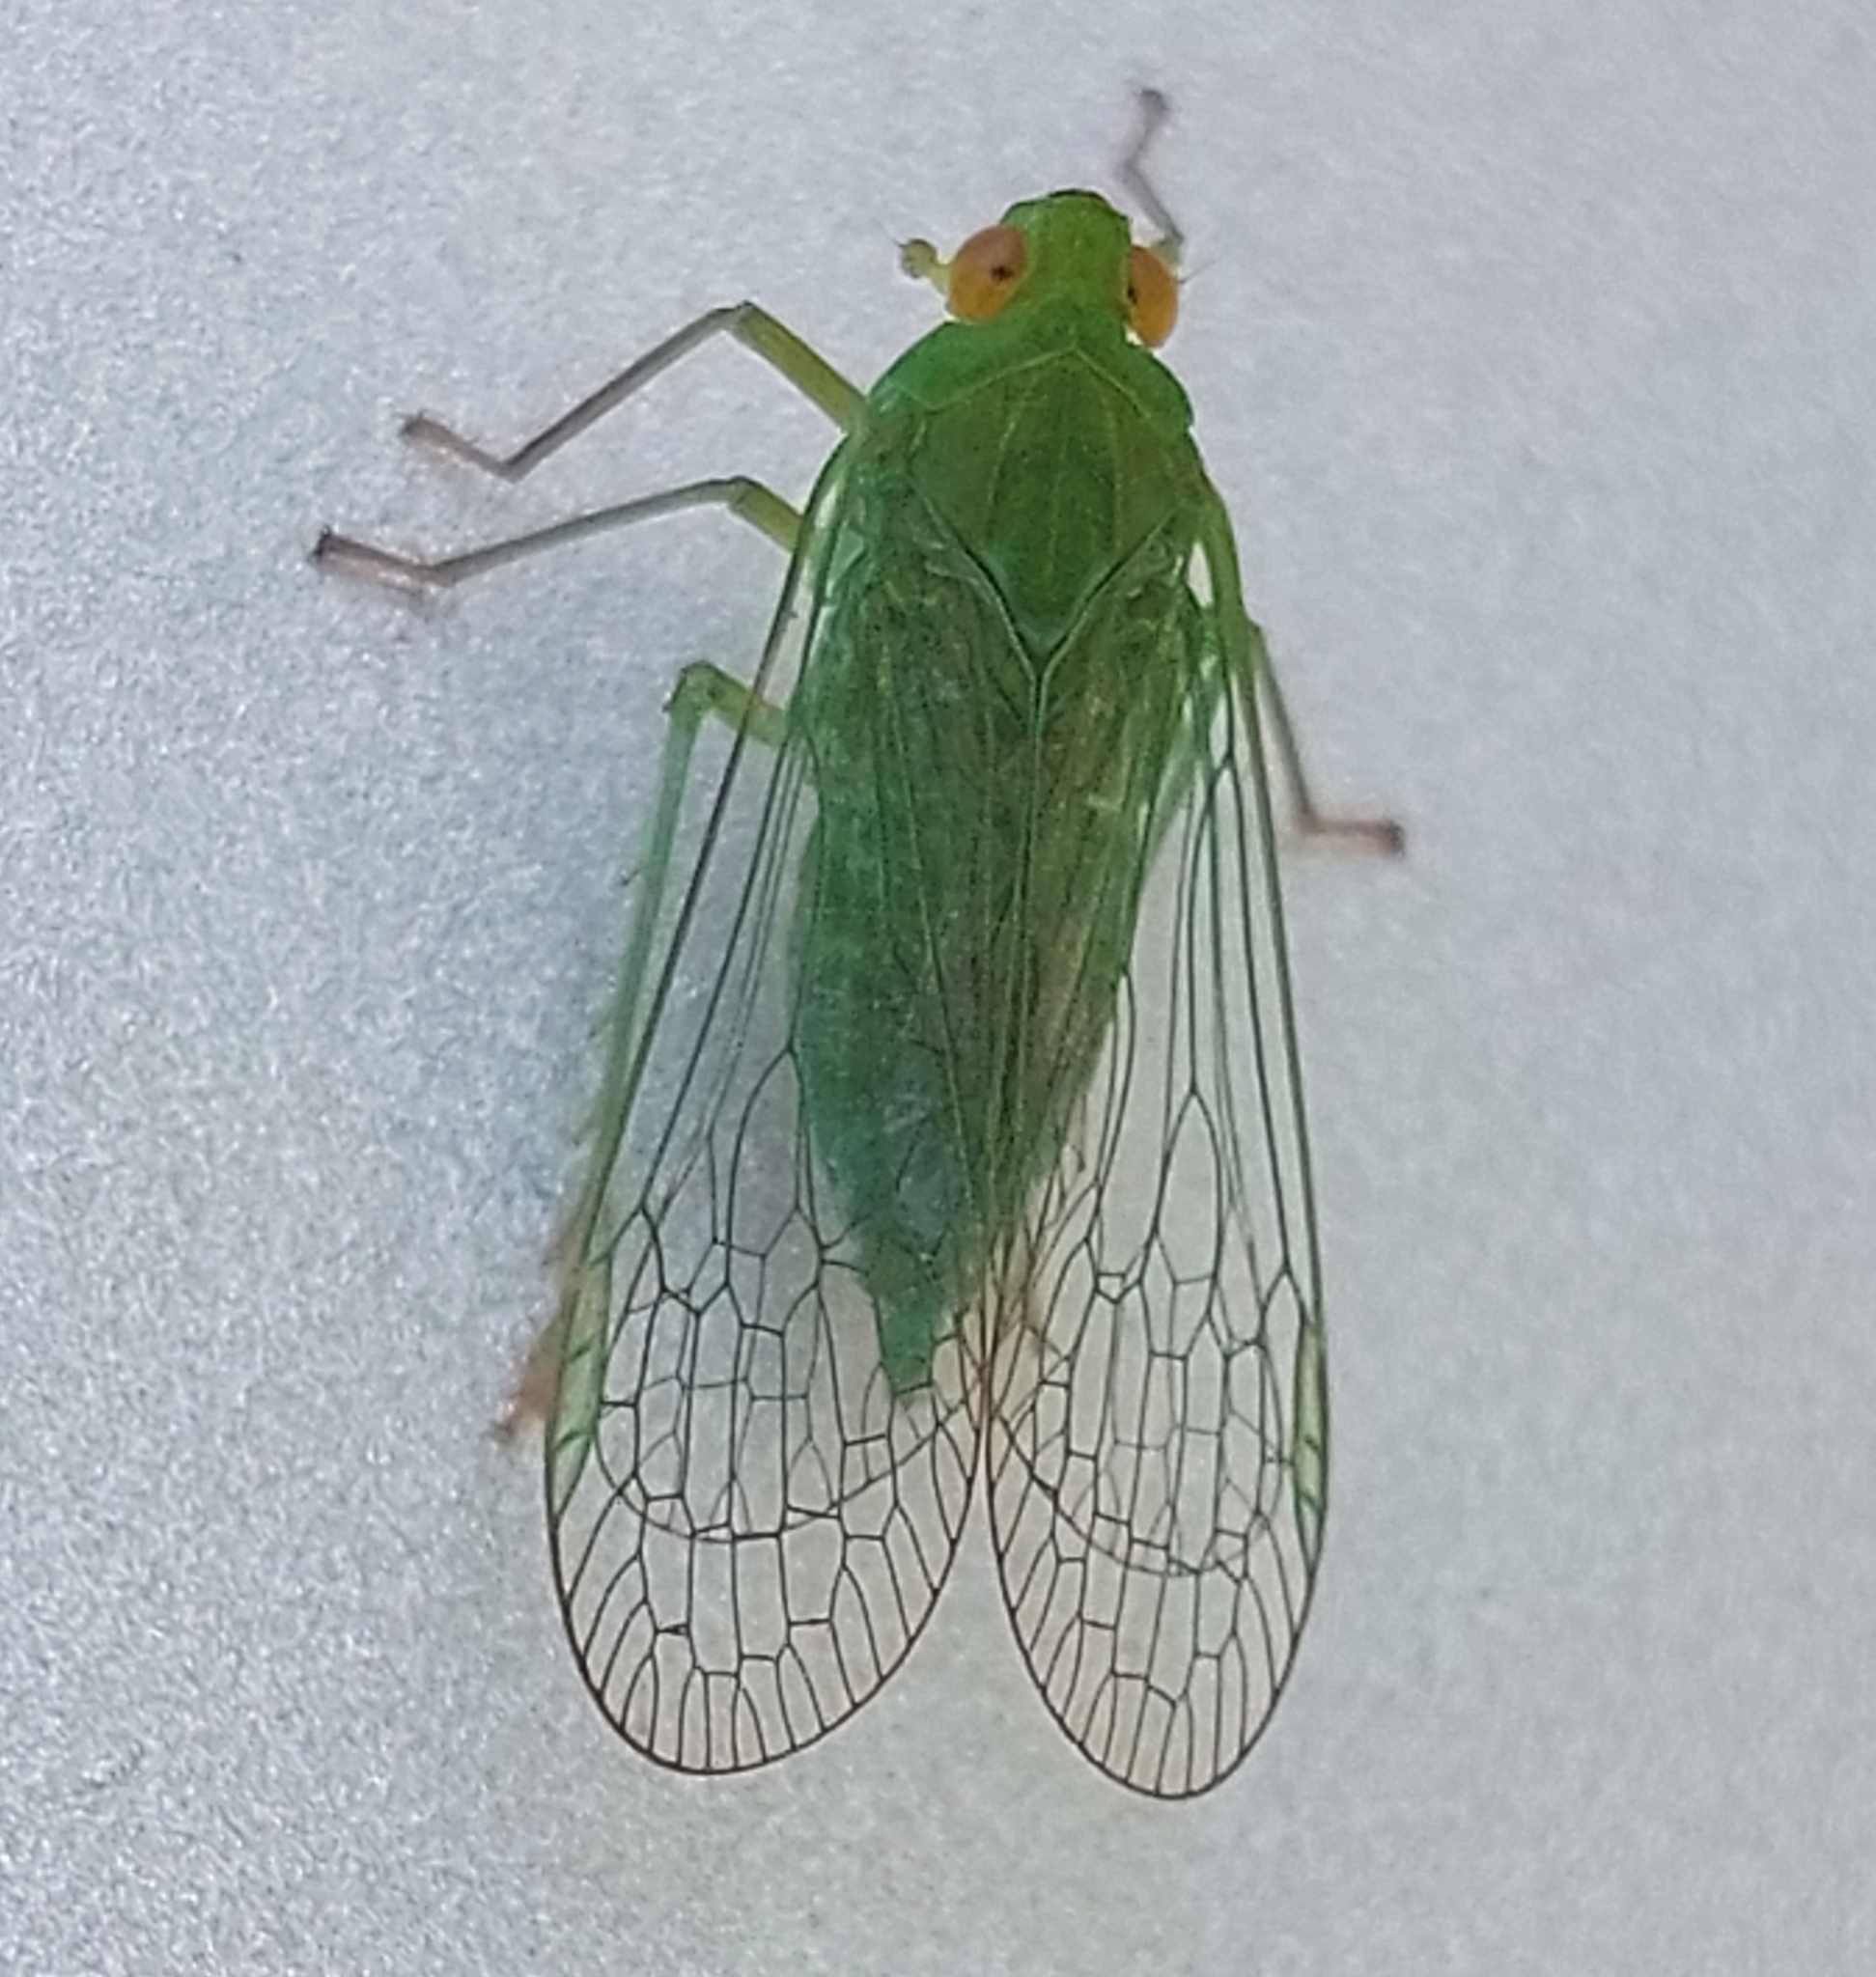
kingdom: Animalia
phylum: Arthropoda
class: Insecta
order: Hemiptera
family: Dictyopharidae
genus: Cuernavaca
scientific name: Cuernavaca
